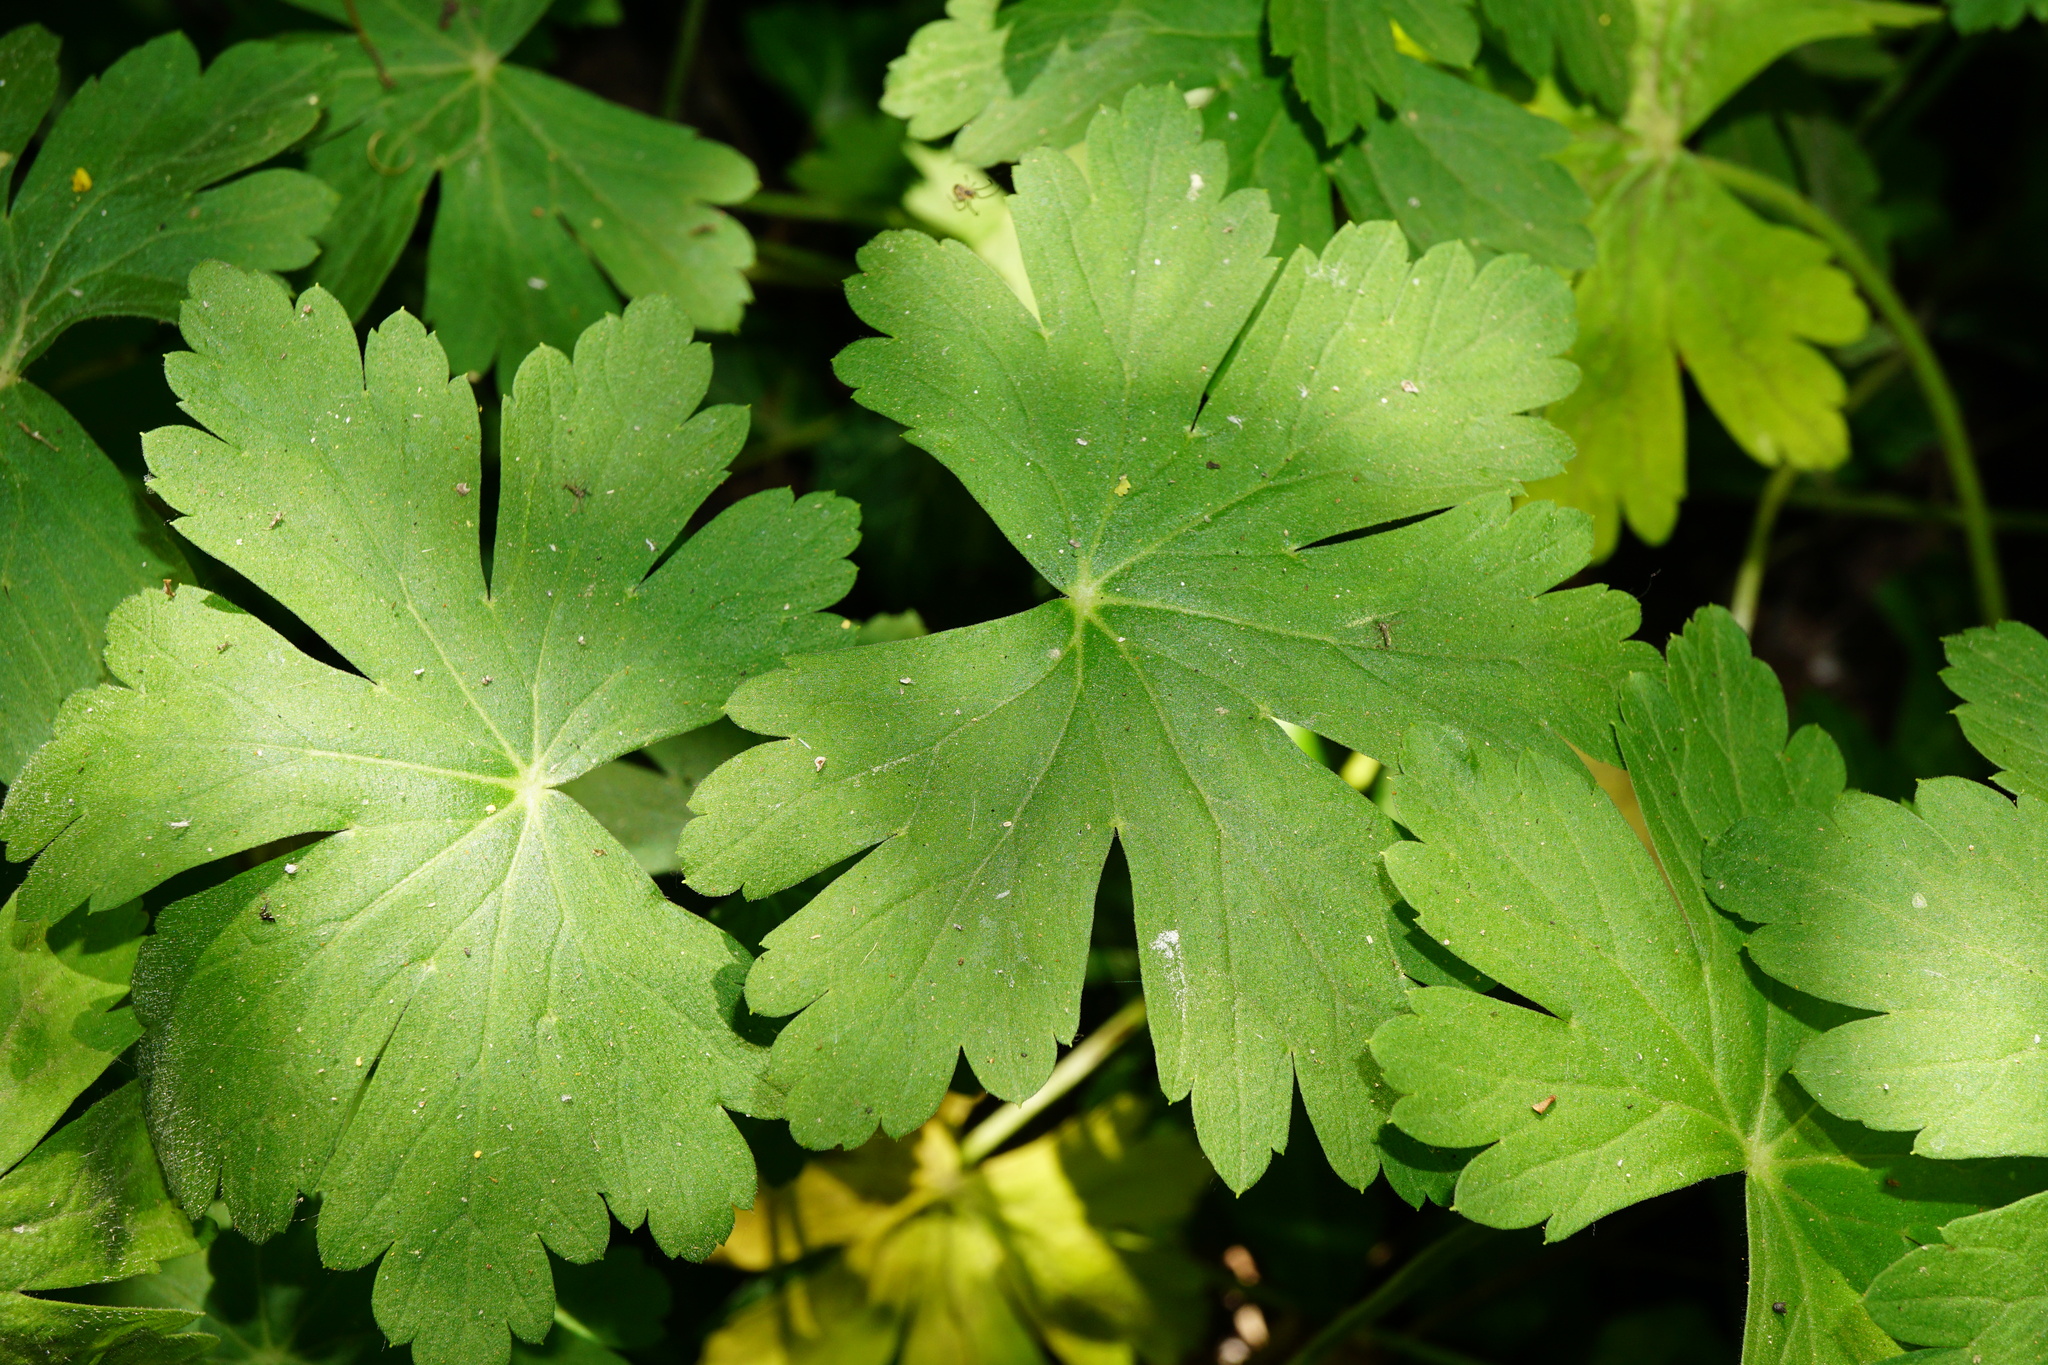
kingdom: Plantae
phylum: Tracheophyta
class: Magnoliopsida
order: Geraniales
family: Geraniaceae
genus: Geranium
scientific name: Geranium macrorrhizum
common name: Rock crane's-bill
